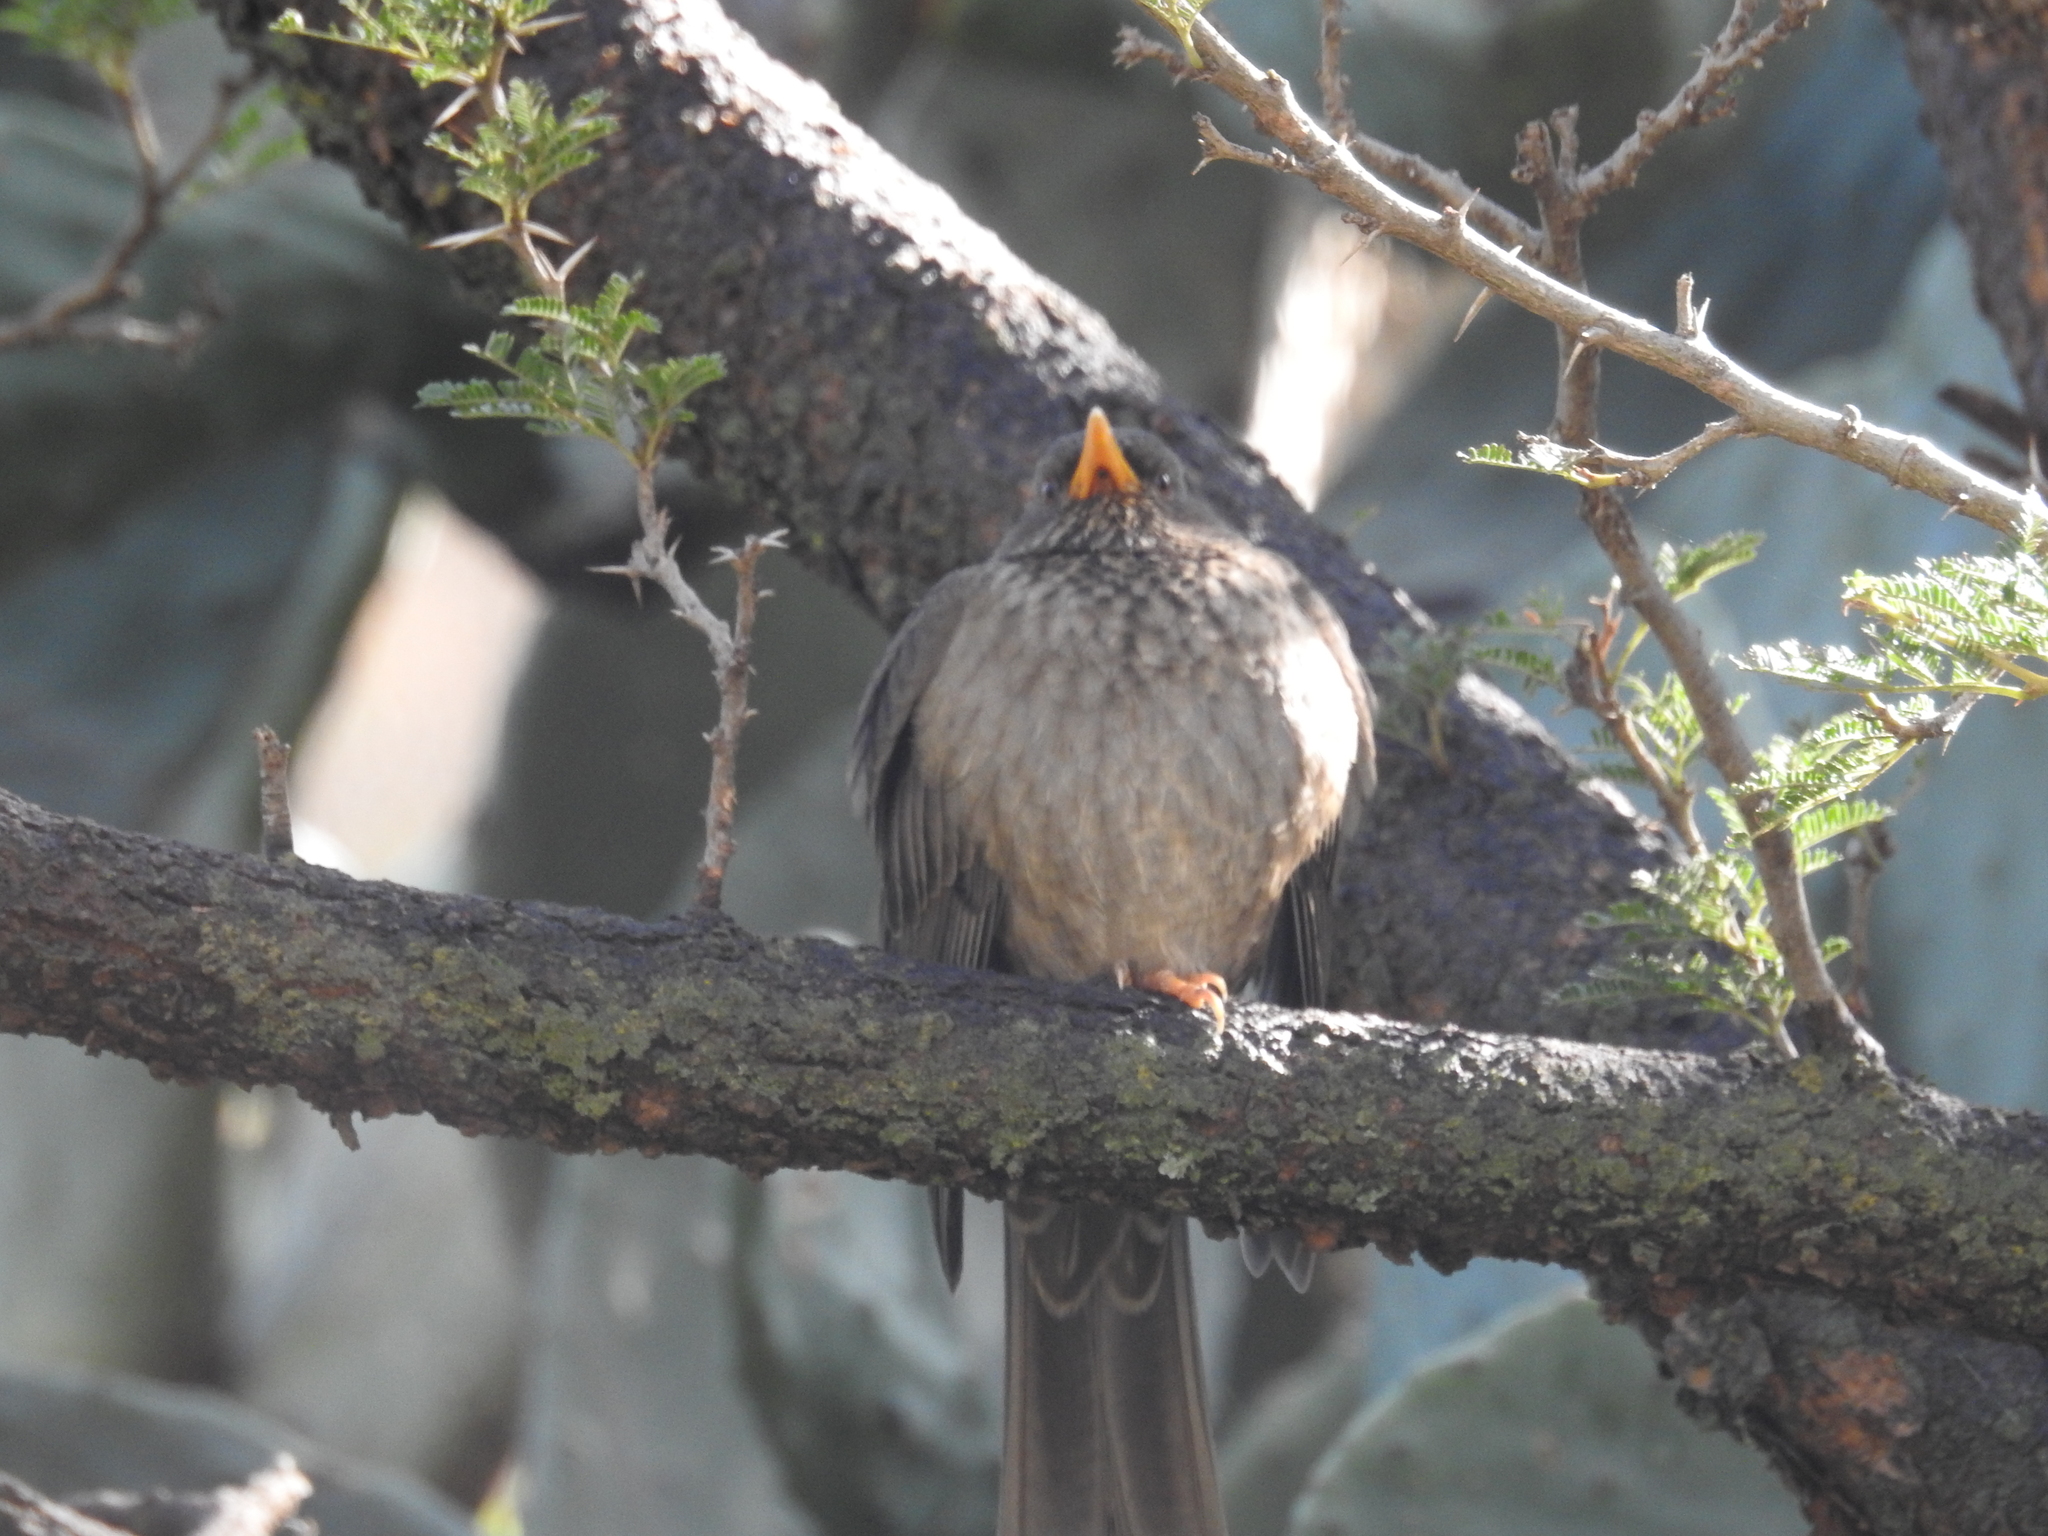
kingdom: Animalia
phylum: Chordata
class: Aves
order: Passeriformes
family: Turdidae
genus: Turdus
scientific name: Turdus menachensis
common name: Yemen thrush
